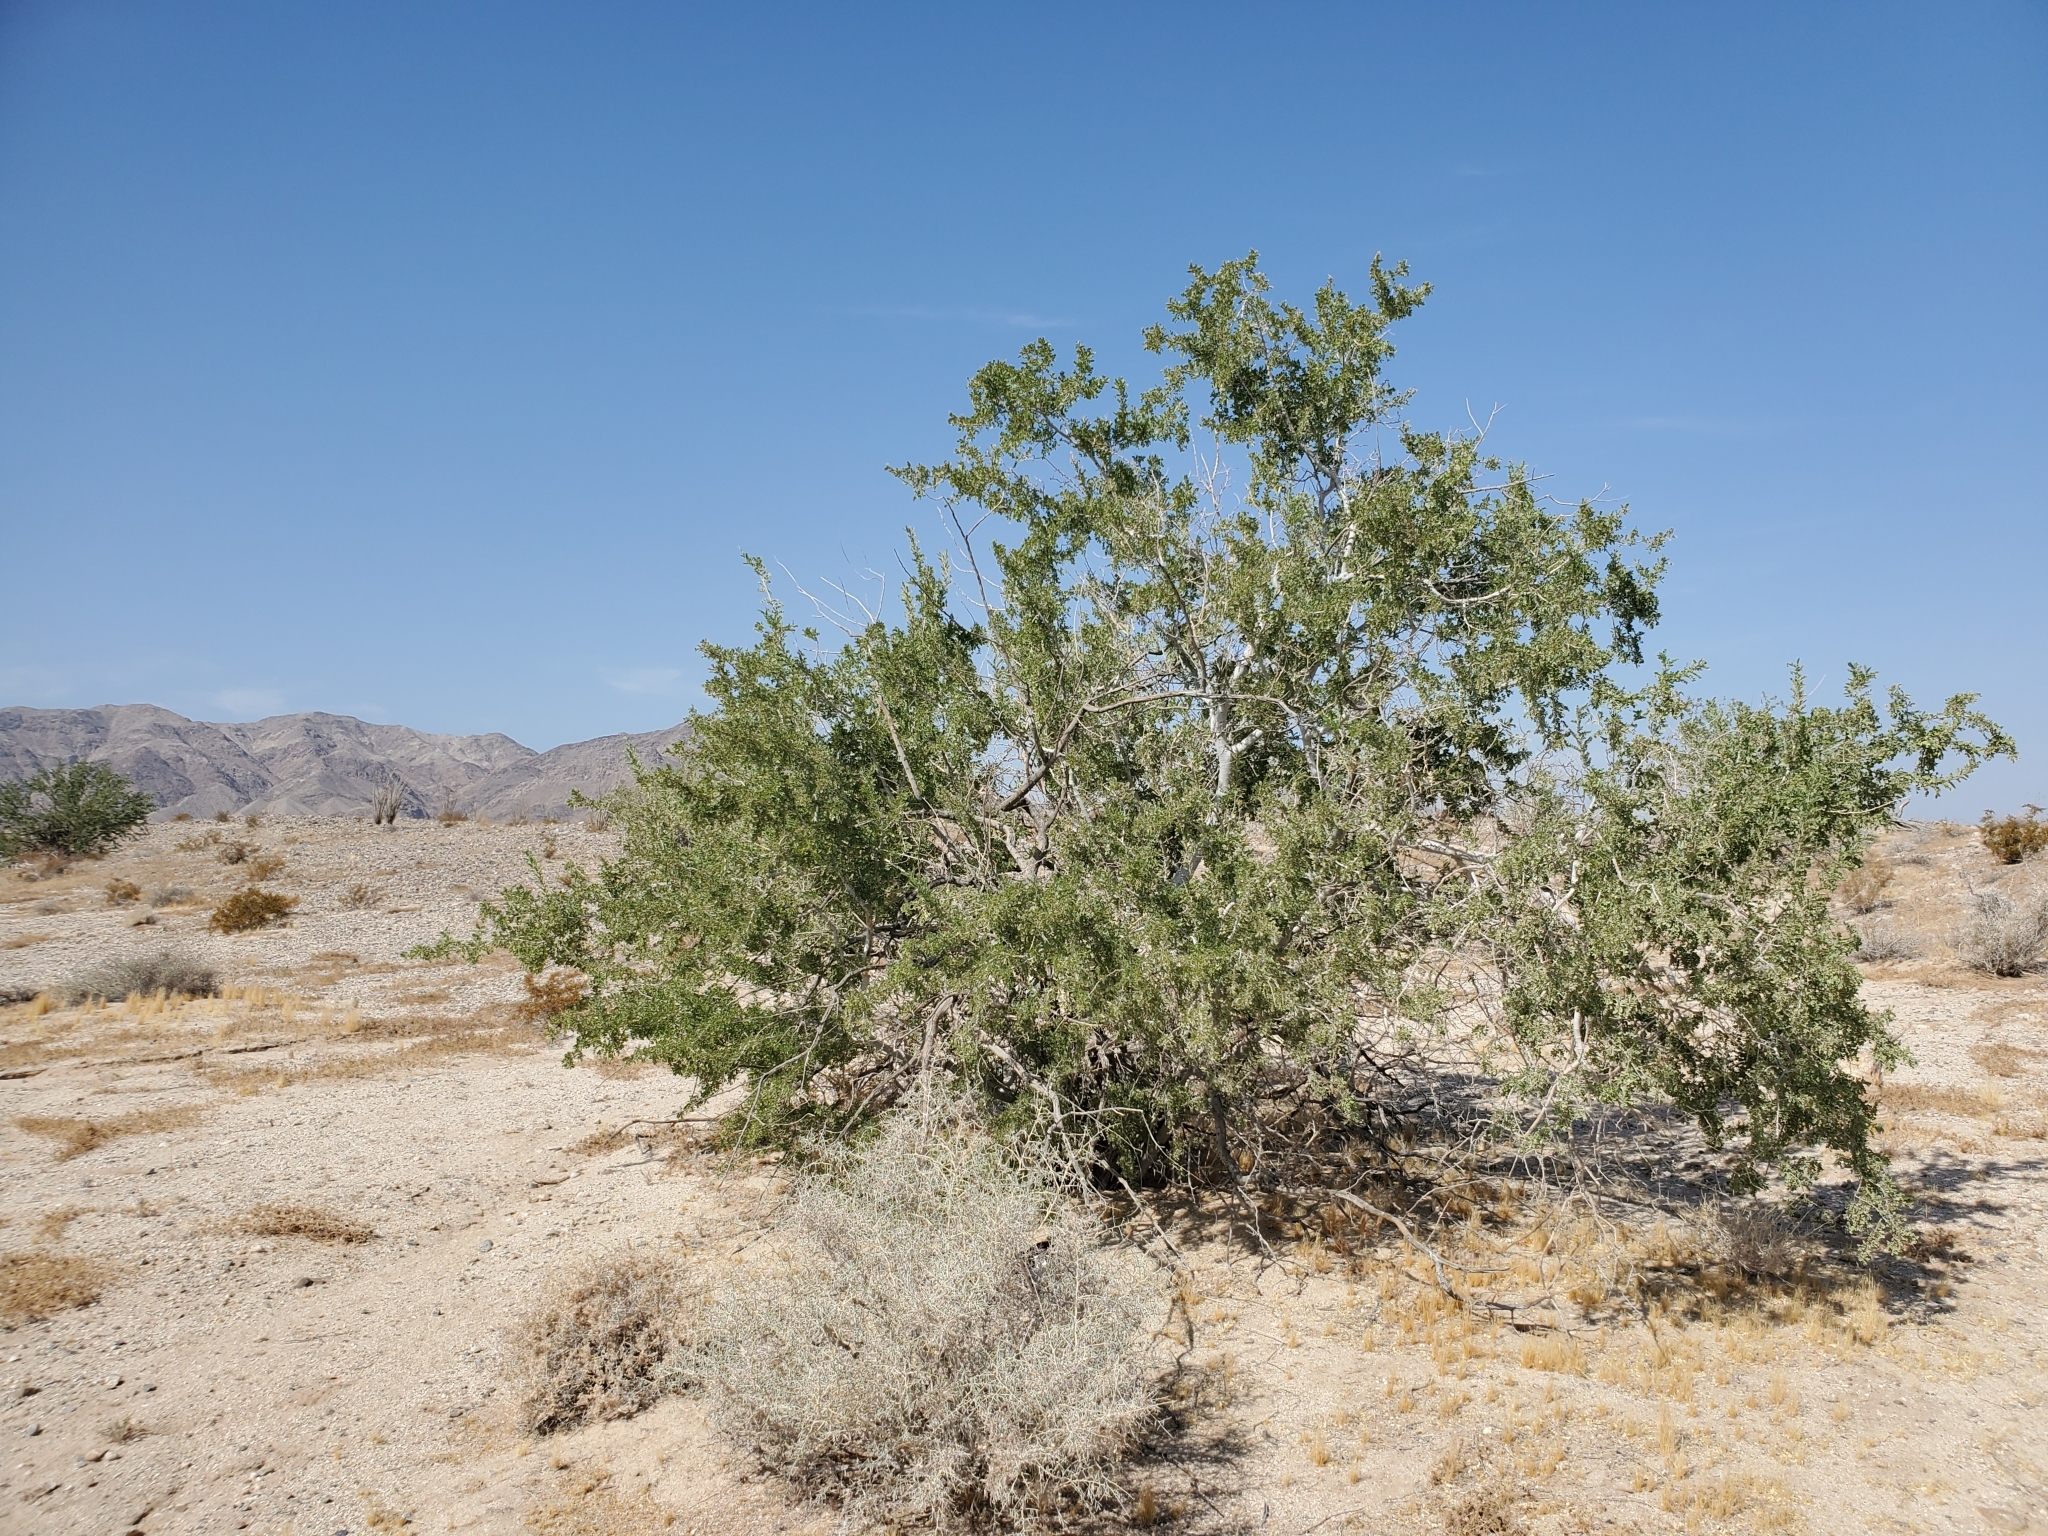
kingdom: Plantae
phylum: Tracheophyta
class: Magnoliopsida
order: Fabales
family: Fabaceae
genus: Olneya
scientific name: Olneya tesota
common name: Desert ironwood
